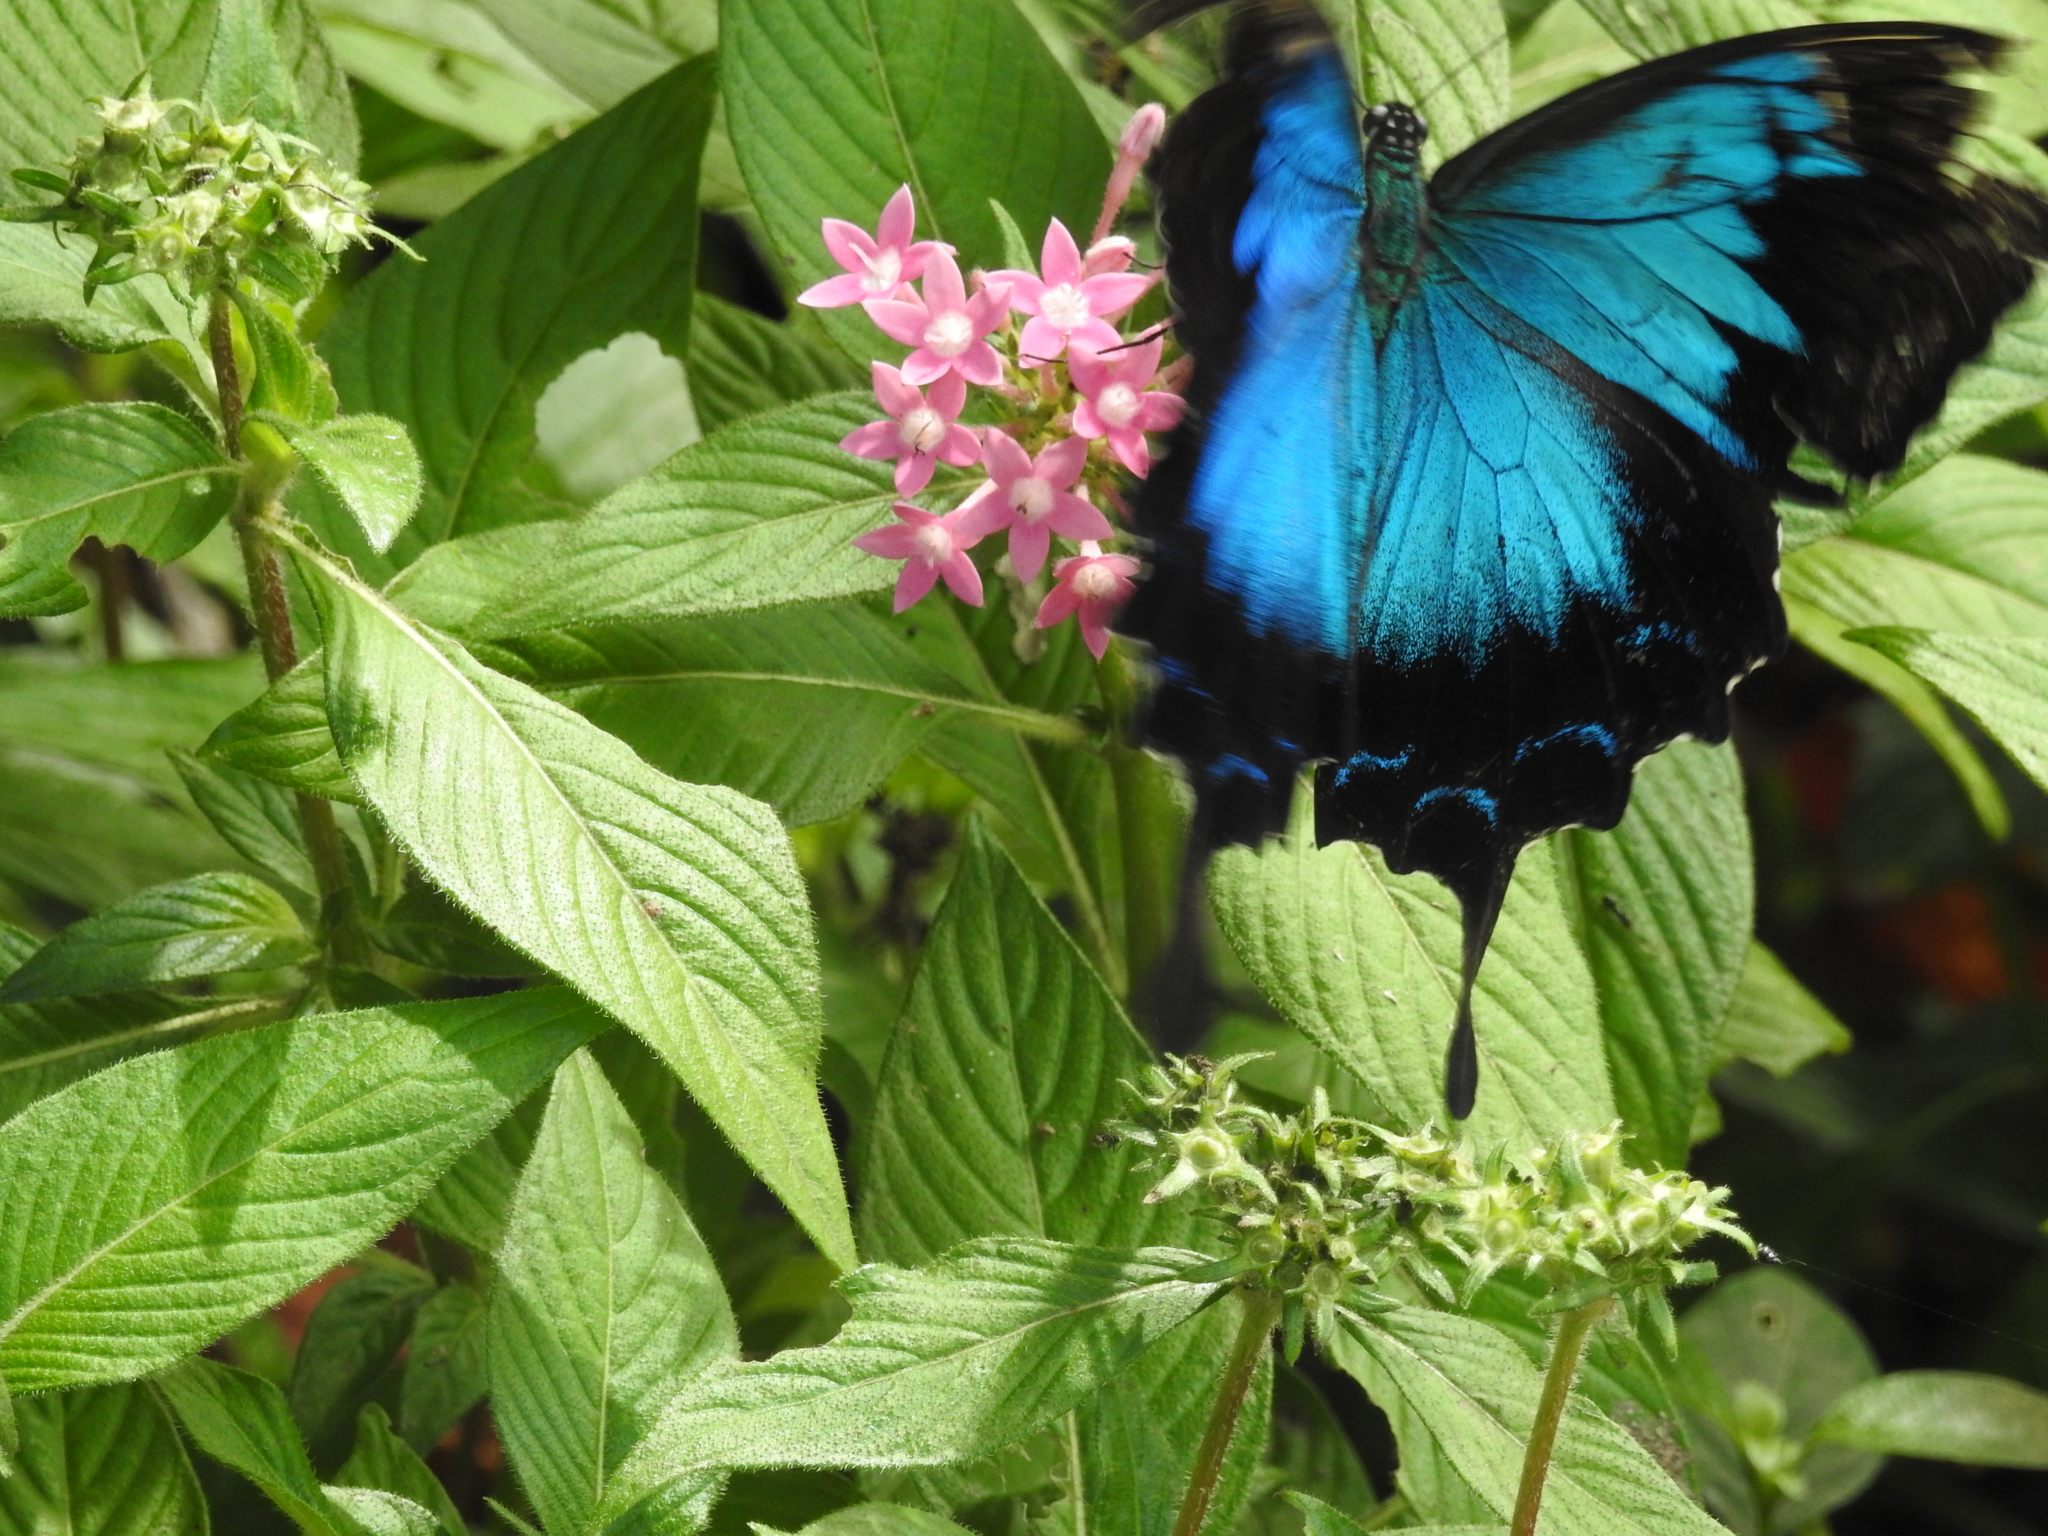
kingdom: Animalia
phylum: Arthropoda
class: Insecta
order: Lepidoptera
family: Papilionidae
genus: Papilio
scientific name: Papilio ulysses
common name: Blue emperor
